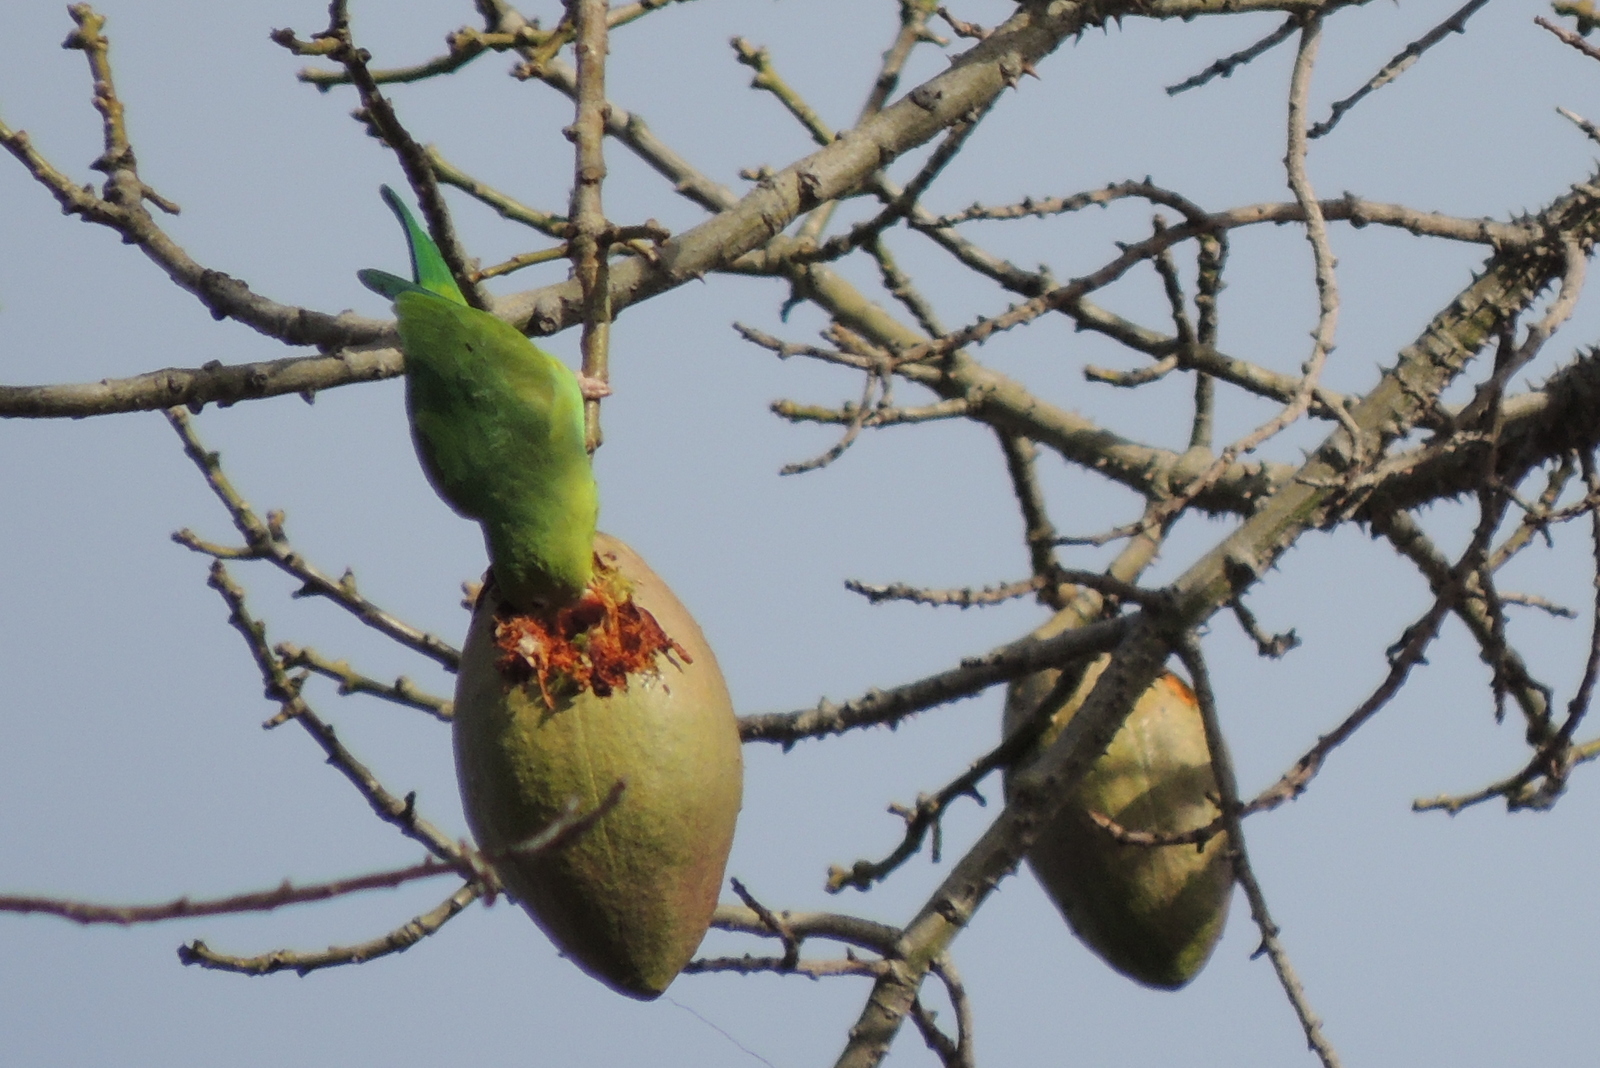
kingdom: Animalia
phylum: Chordata
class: Aves
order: Psittaciformes
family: Psittacidae
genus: Brotogeris
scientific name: Brotogeris chiriri
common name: Yellow-chevroned parakeet
